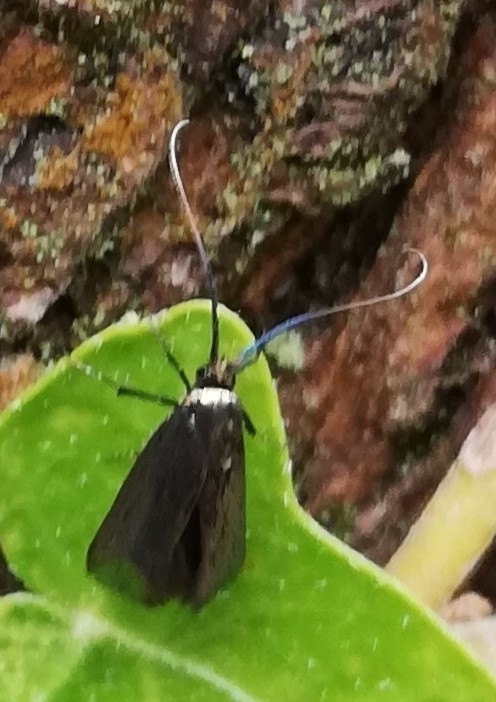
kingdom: Animalia
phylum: Arthropoda
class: Insecta
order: Lepidoptera
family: Adelidae
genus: Adela
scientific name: Adela viridella
